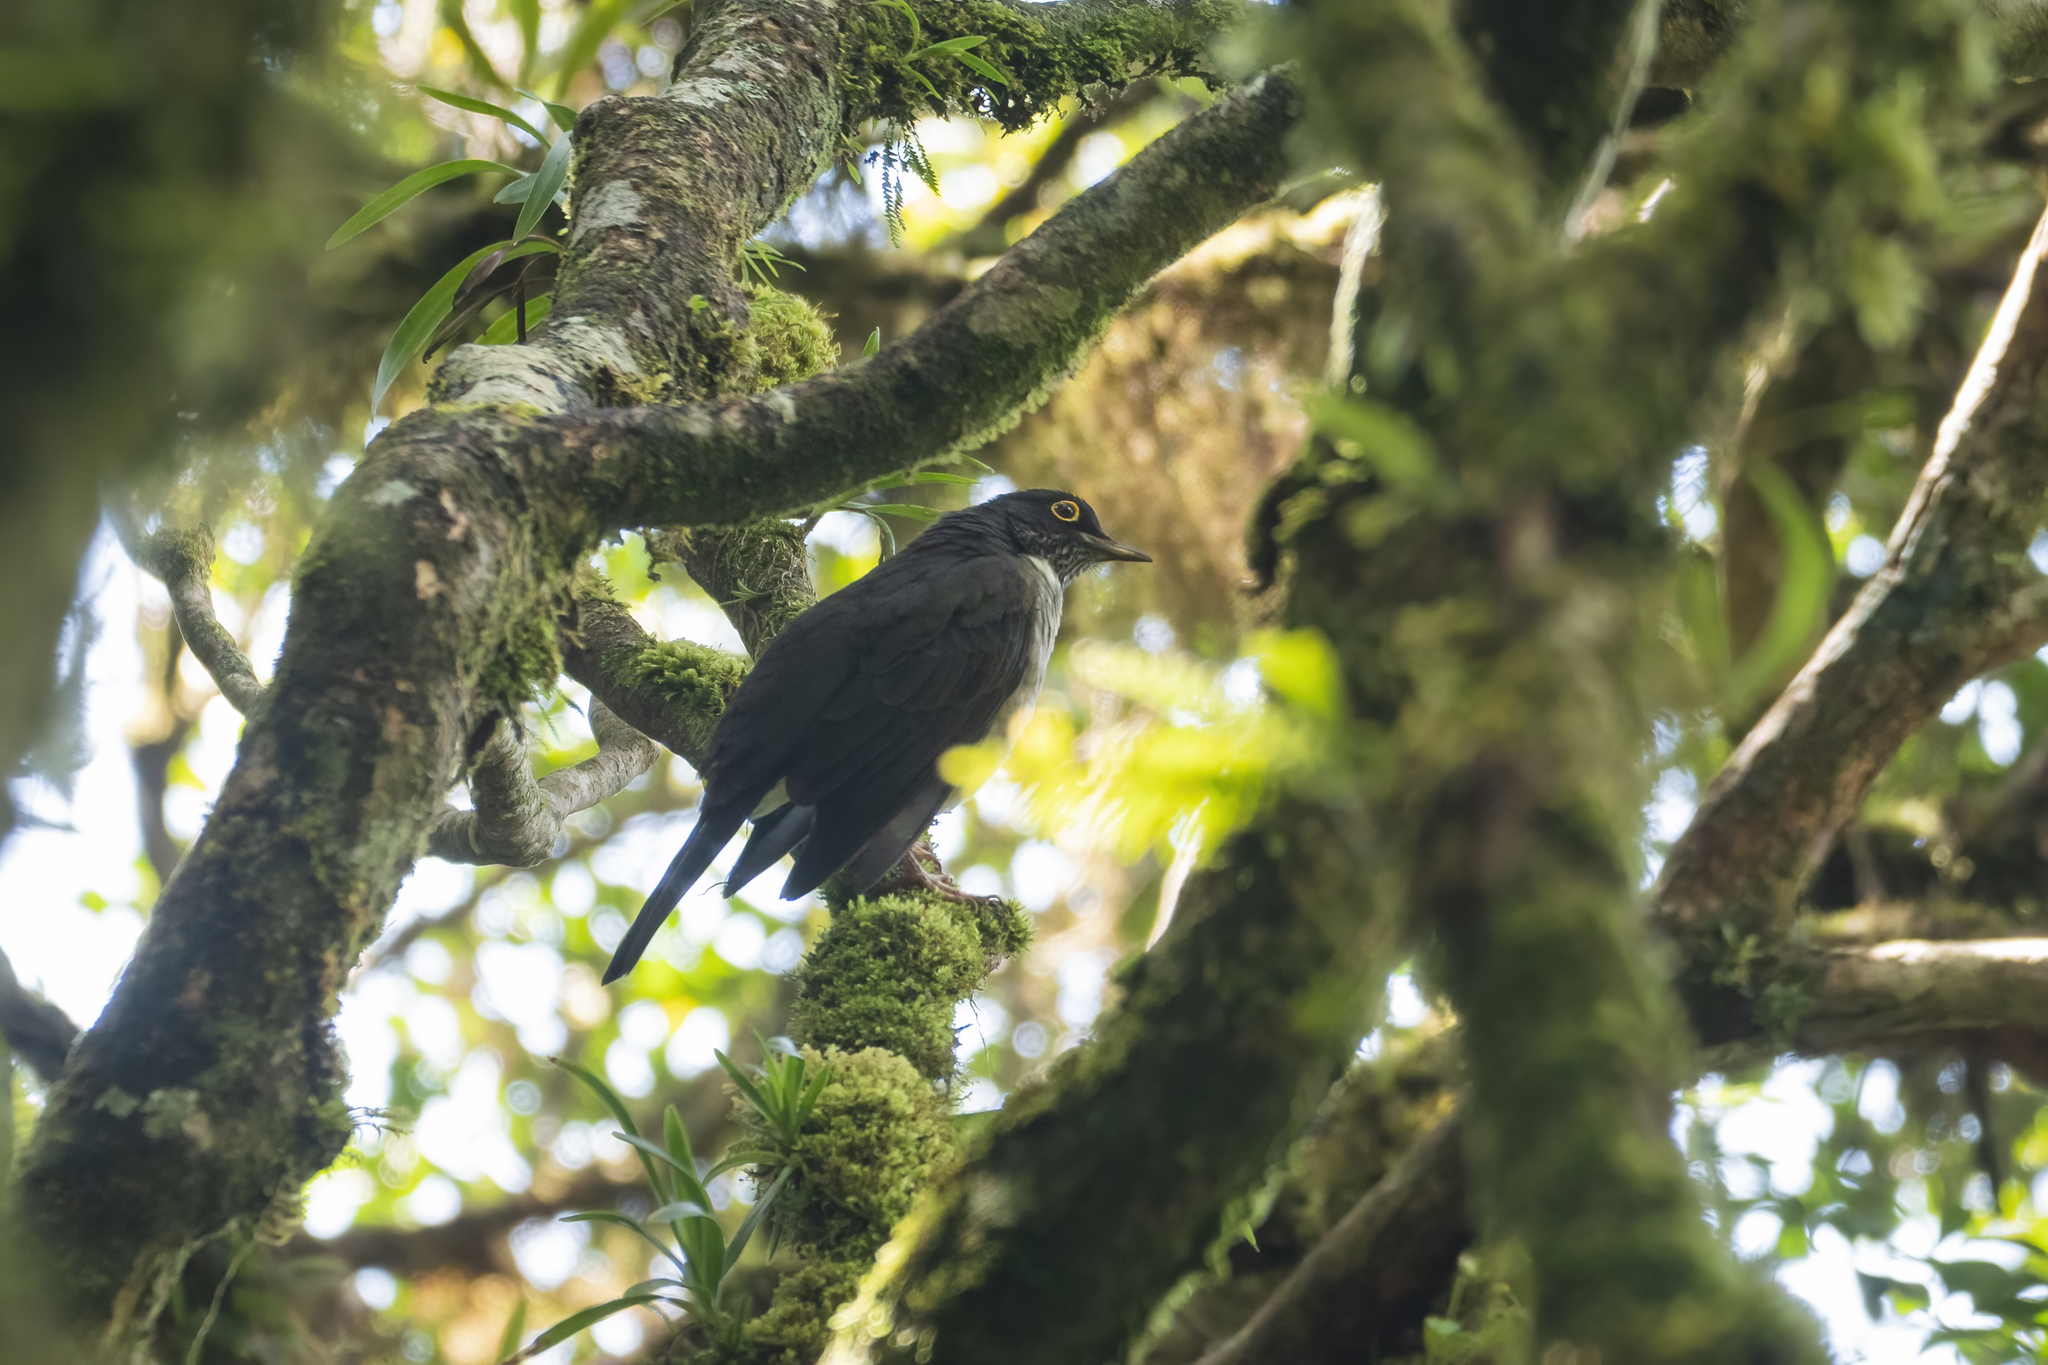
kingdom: Animalia
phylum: Chordata
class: Aves
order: Passeriformes
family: Turdidae
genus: Turdus
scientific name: Turdus assimilis
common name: White-throated thrush
